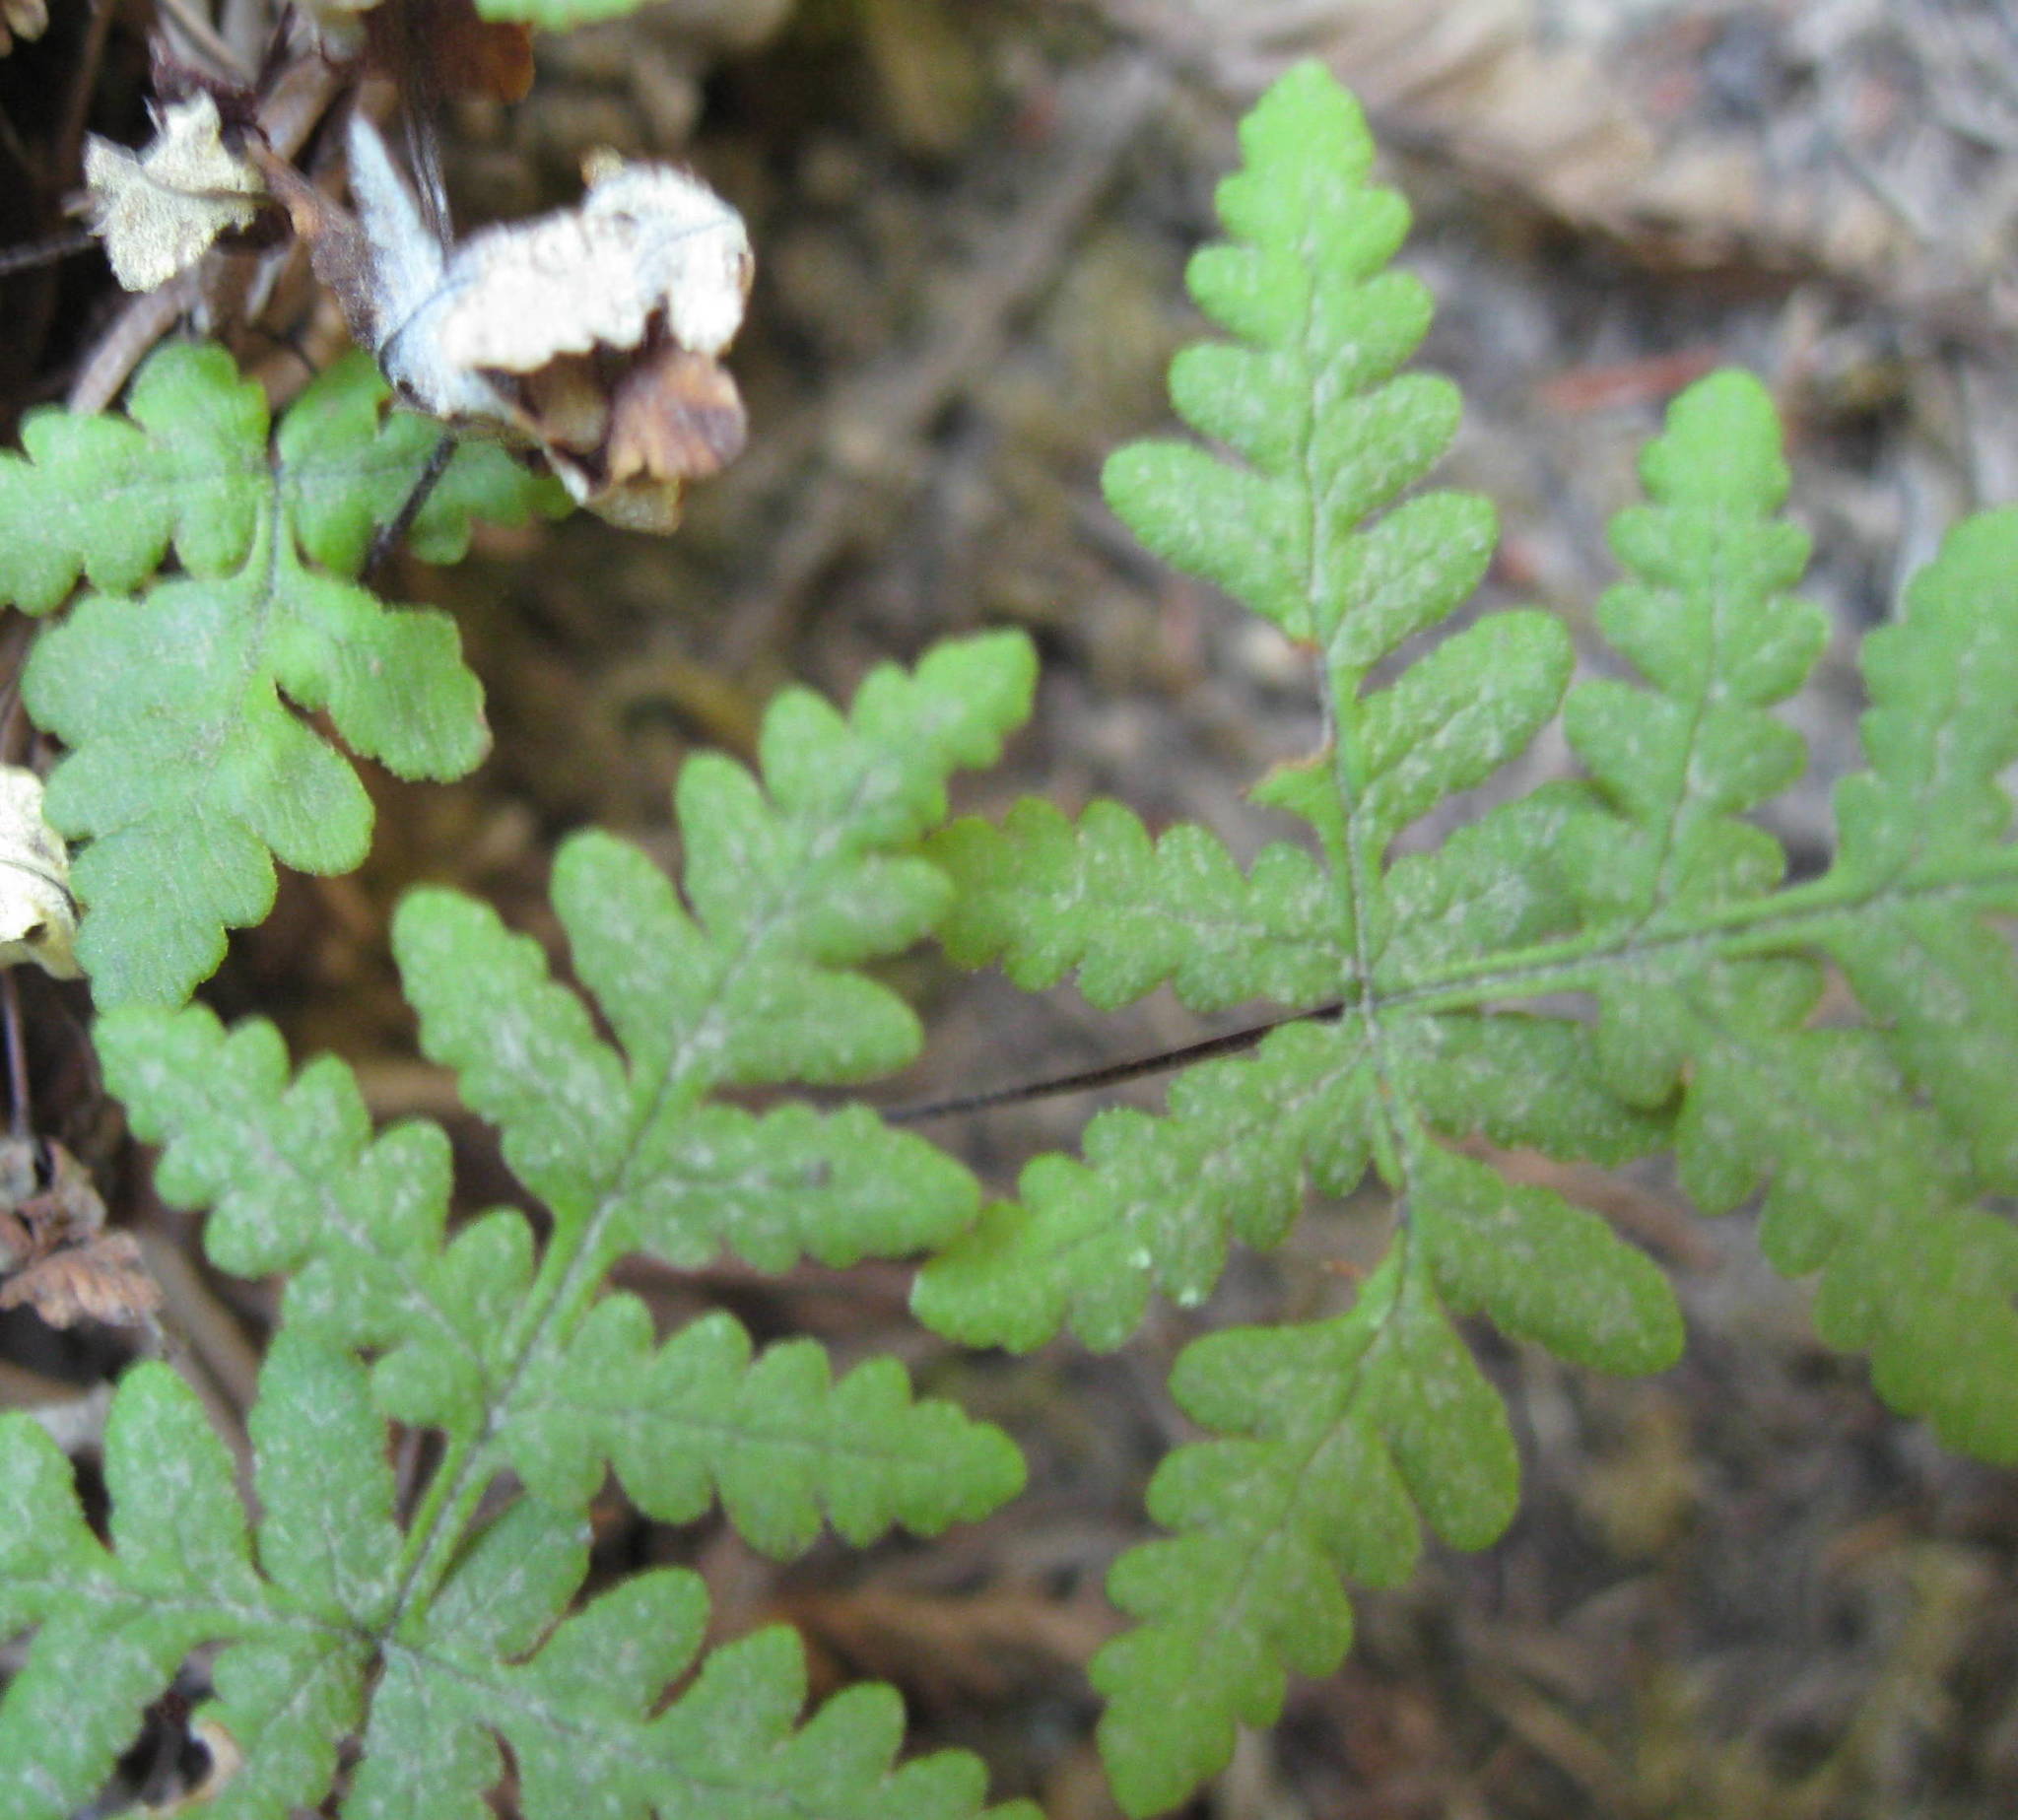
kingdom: Plantae
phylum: Tracheophyta
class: Polypodiopsida
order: Polypodiales
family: Pteridaceae
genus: Pentagramma
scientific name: Pentagramma triangularis
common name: Gold fern
